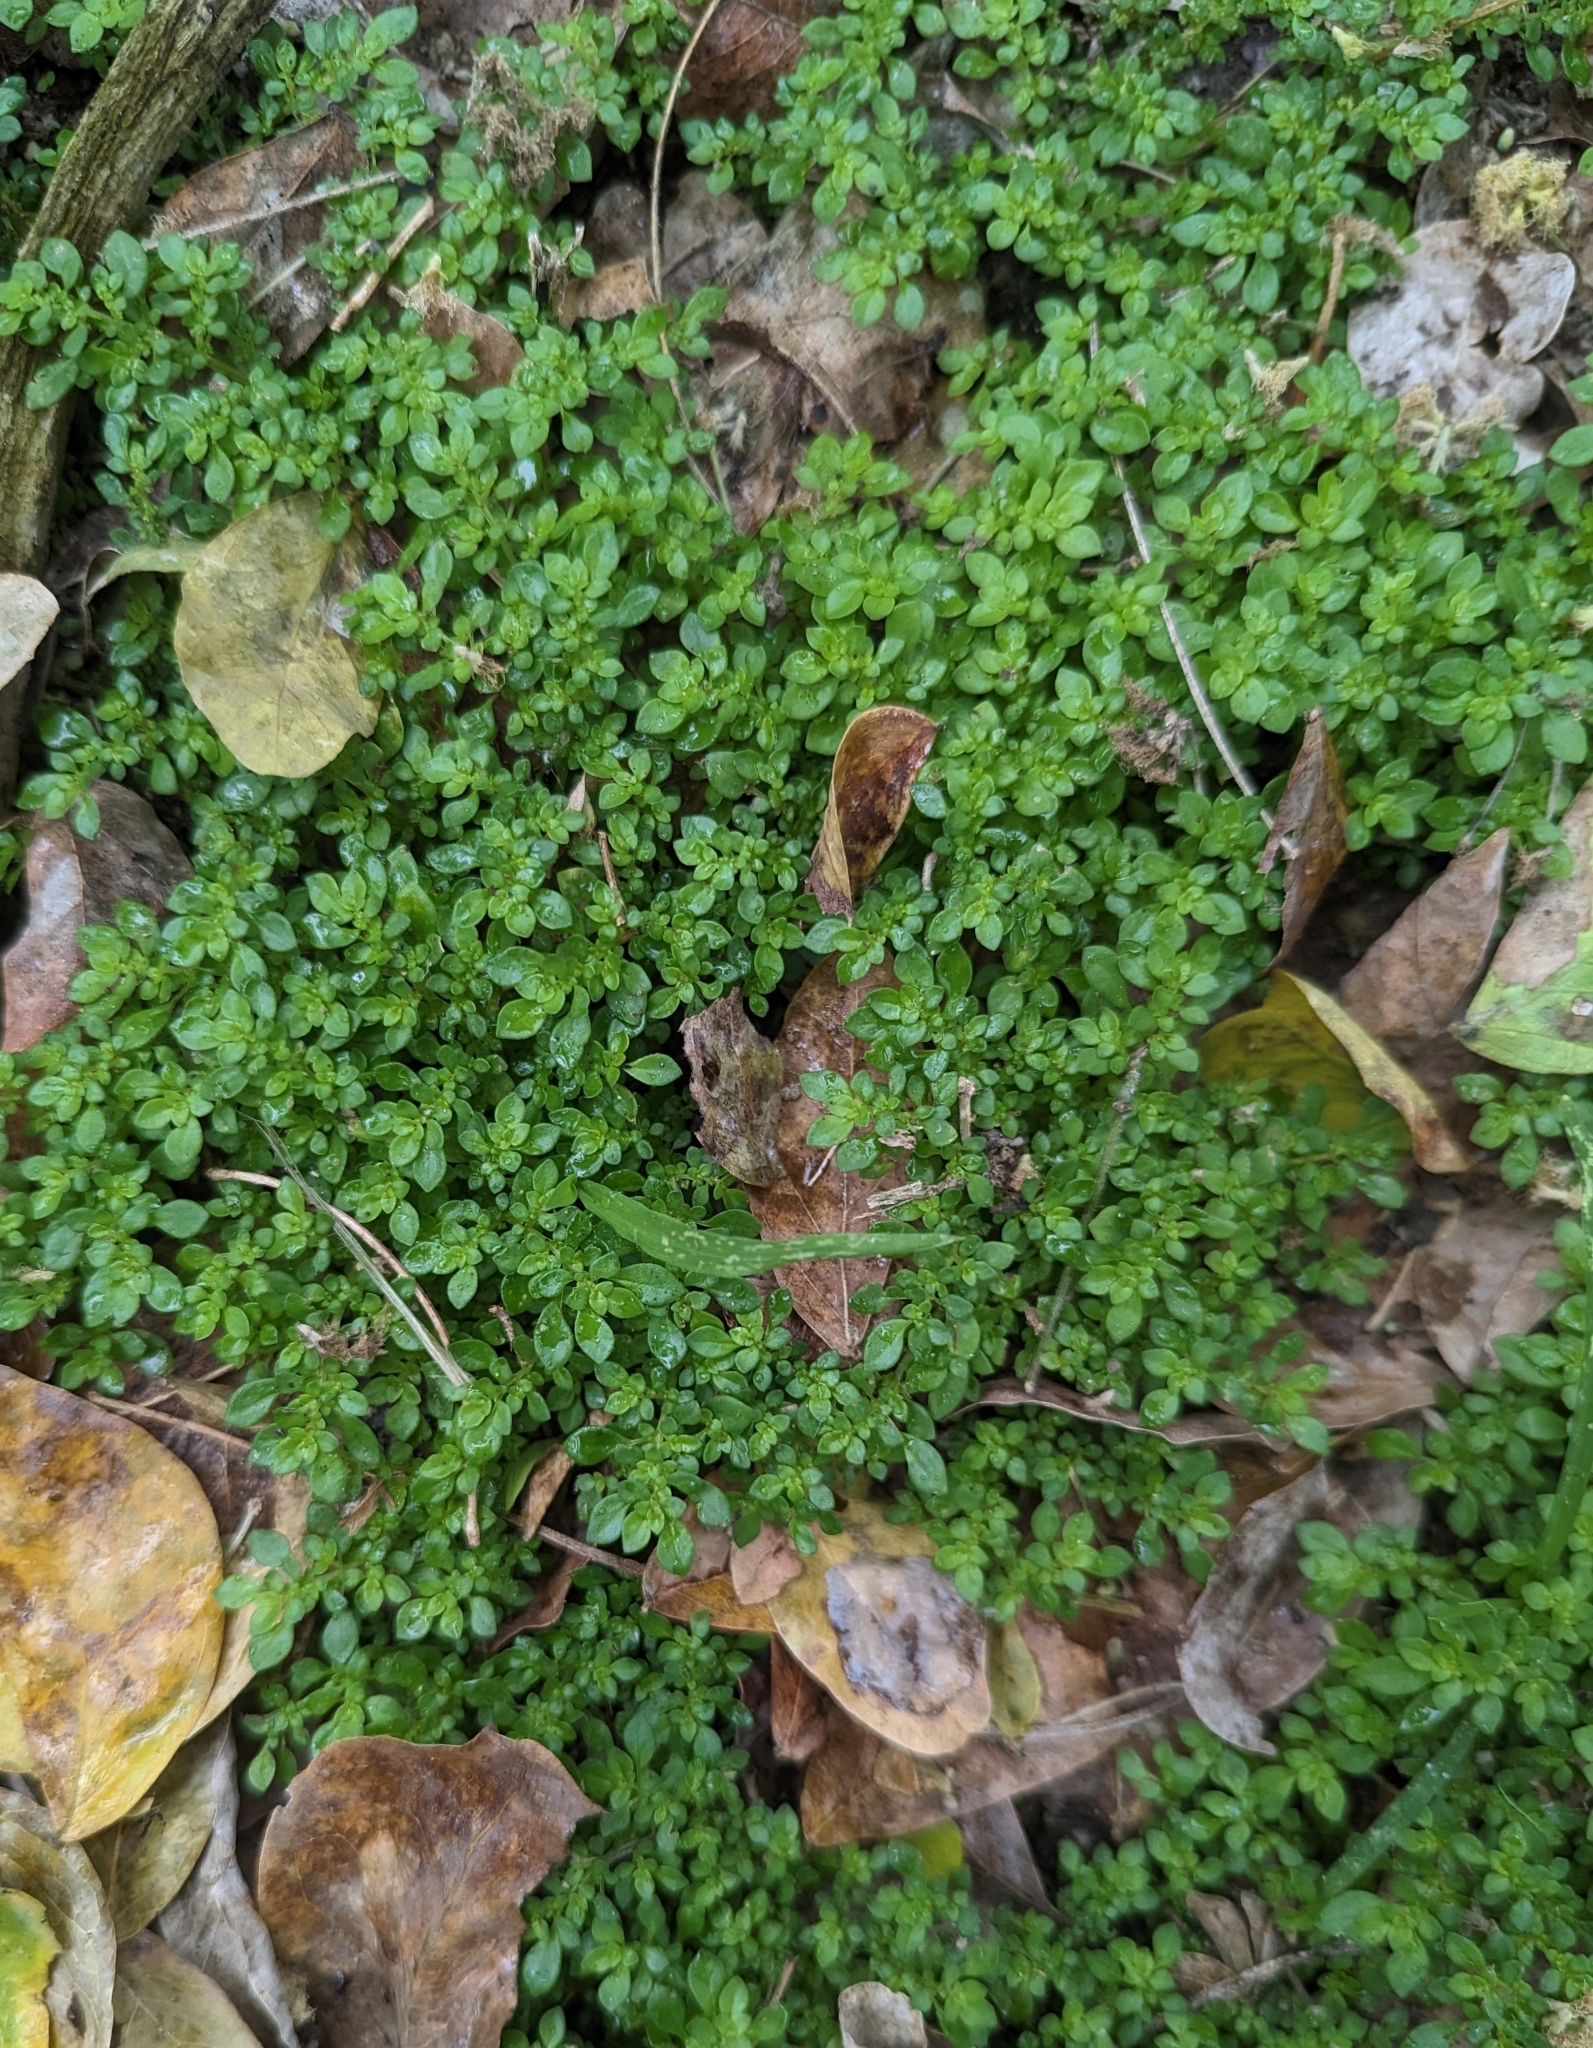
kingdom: Plantae
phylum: Tracheophyta
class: Magnoliopsida
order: Rosales
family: Urticaceae
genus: Pilea
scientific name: Pilea microphylla
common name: Artillery-plant
